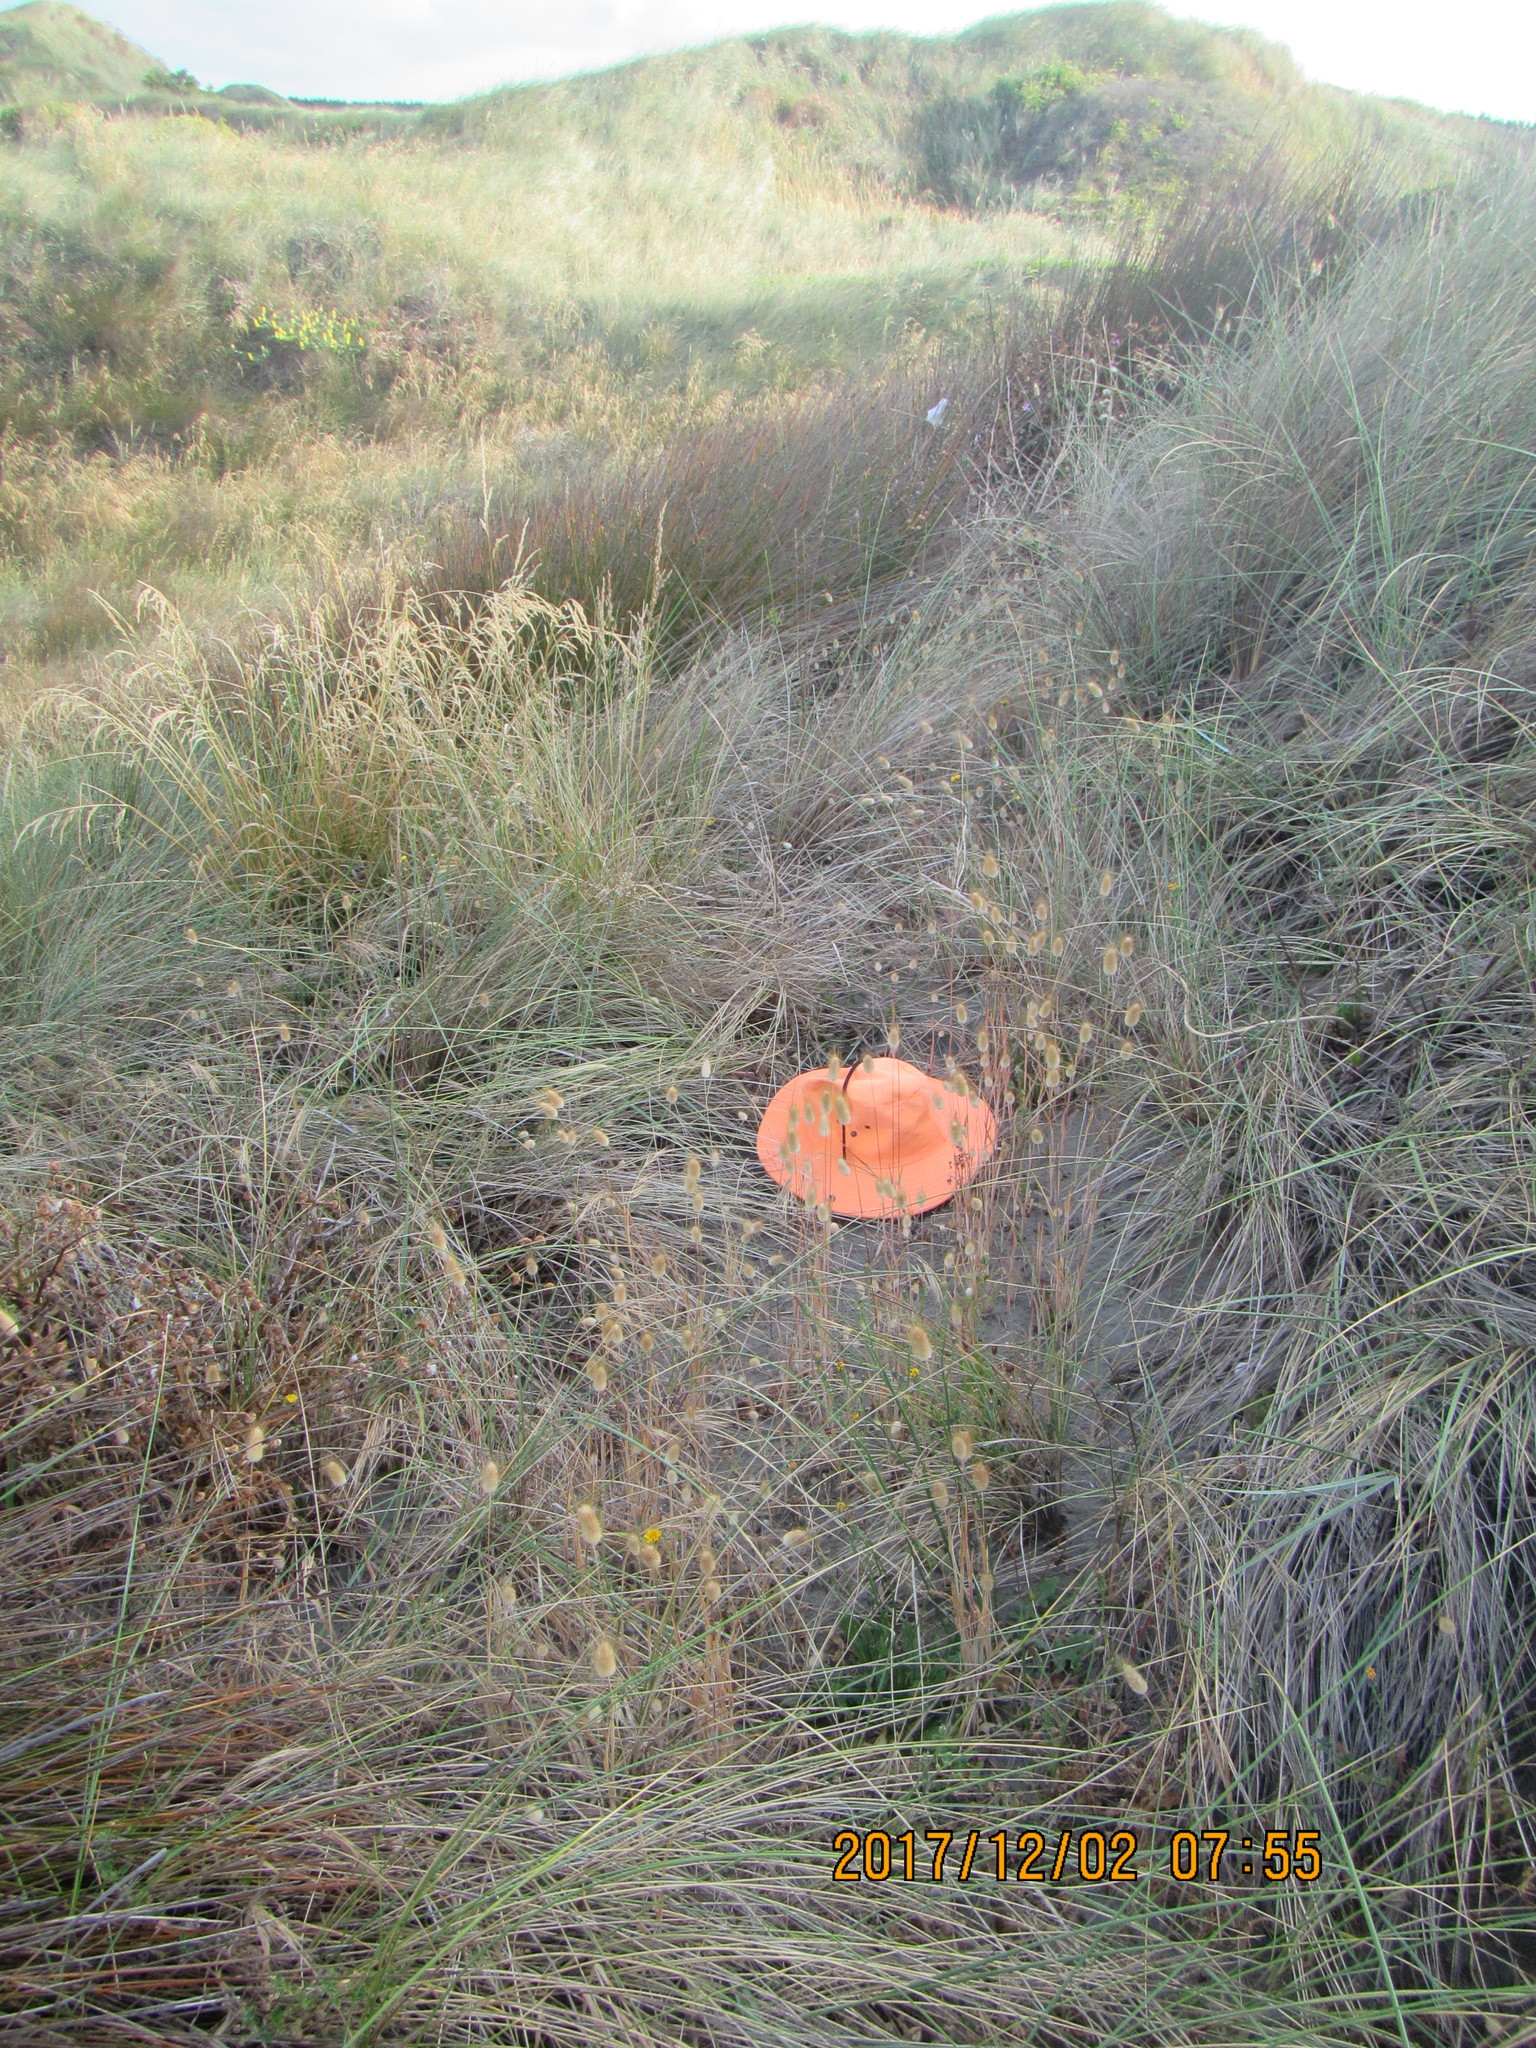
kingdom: Plantae
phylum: Tracheophyta
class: Liliopsida
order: Poales
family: Poaceae
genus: Lagurus
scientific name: Lagurus ovatus
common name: Hare's-tail
